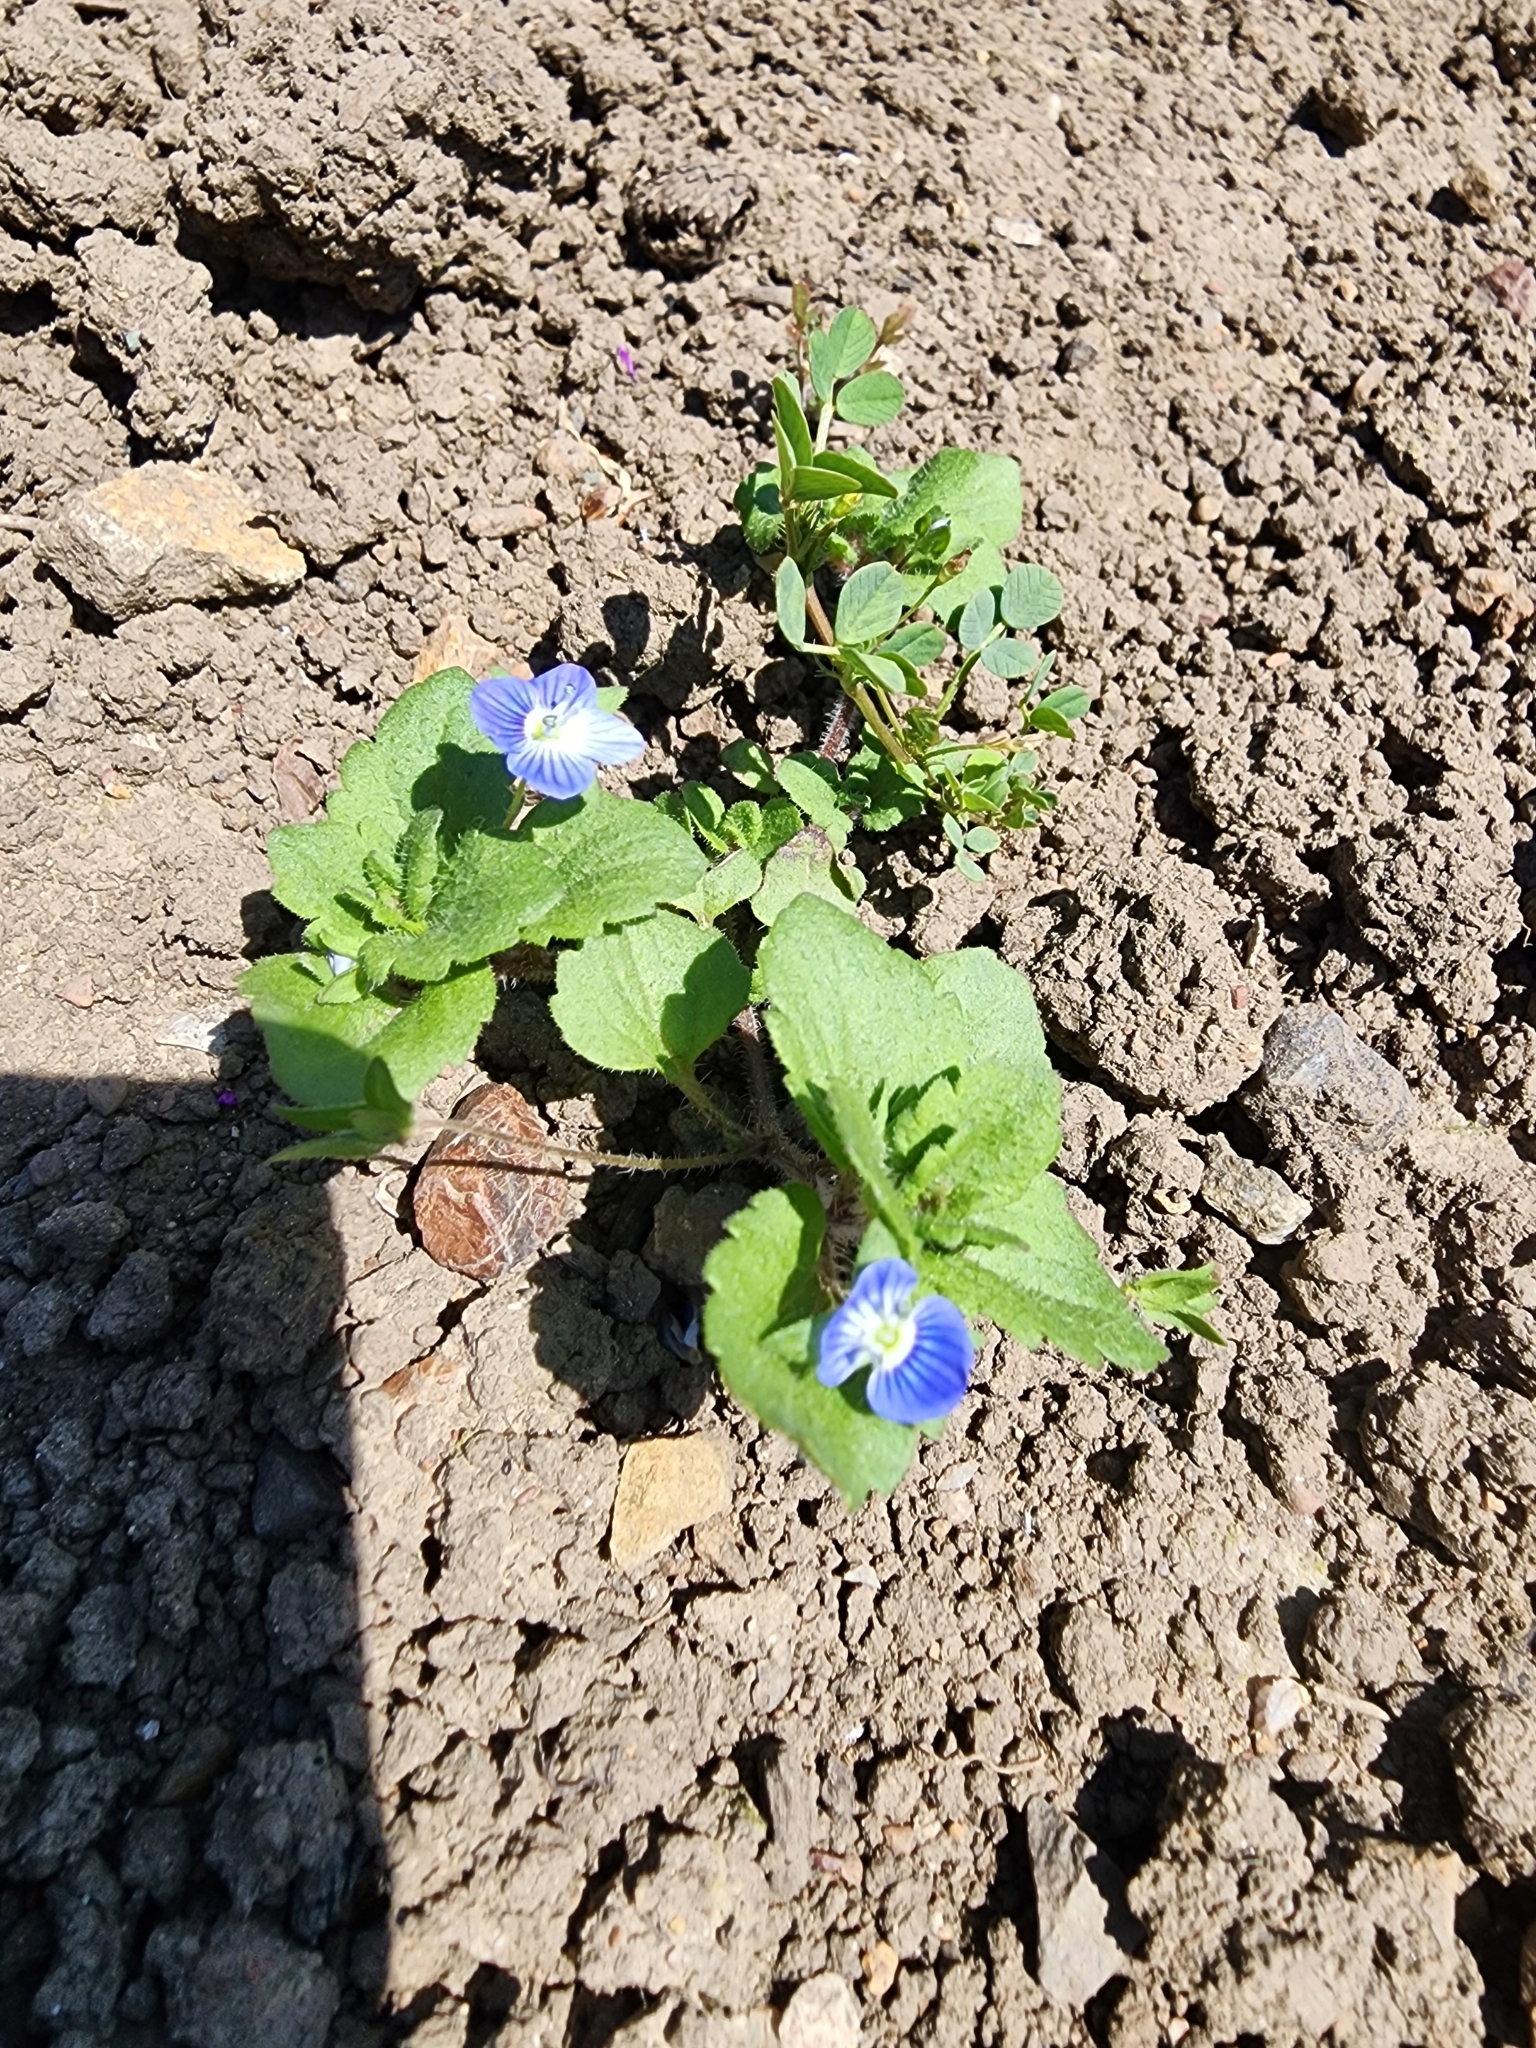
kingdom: Plantae
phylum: Tracheophyta
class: Magnoliopsida
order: Lamiales
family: Plantaginaceae
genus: Veronica
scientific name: Veronica persica
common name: Common field-speedwell
